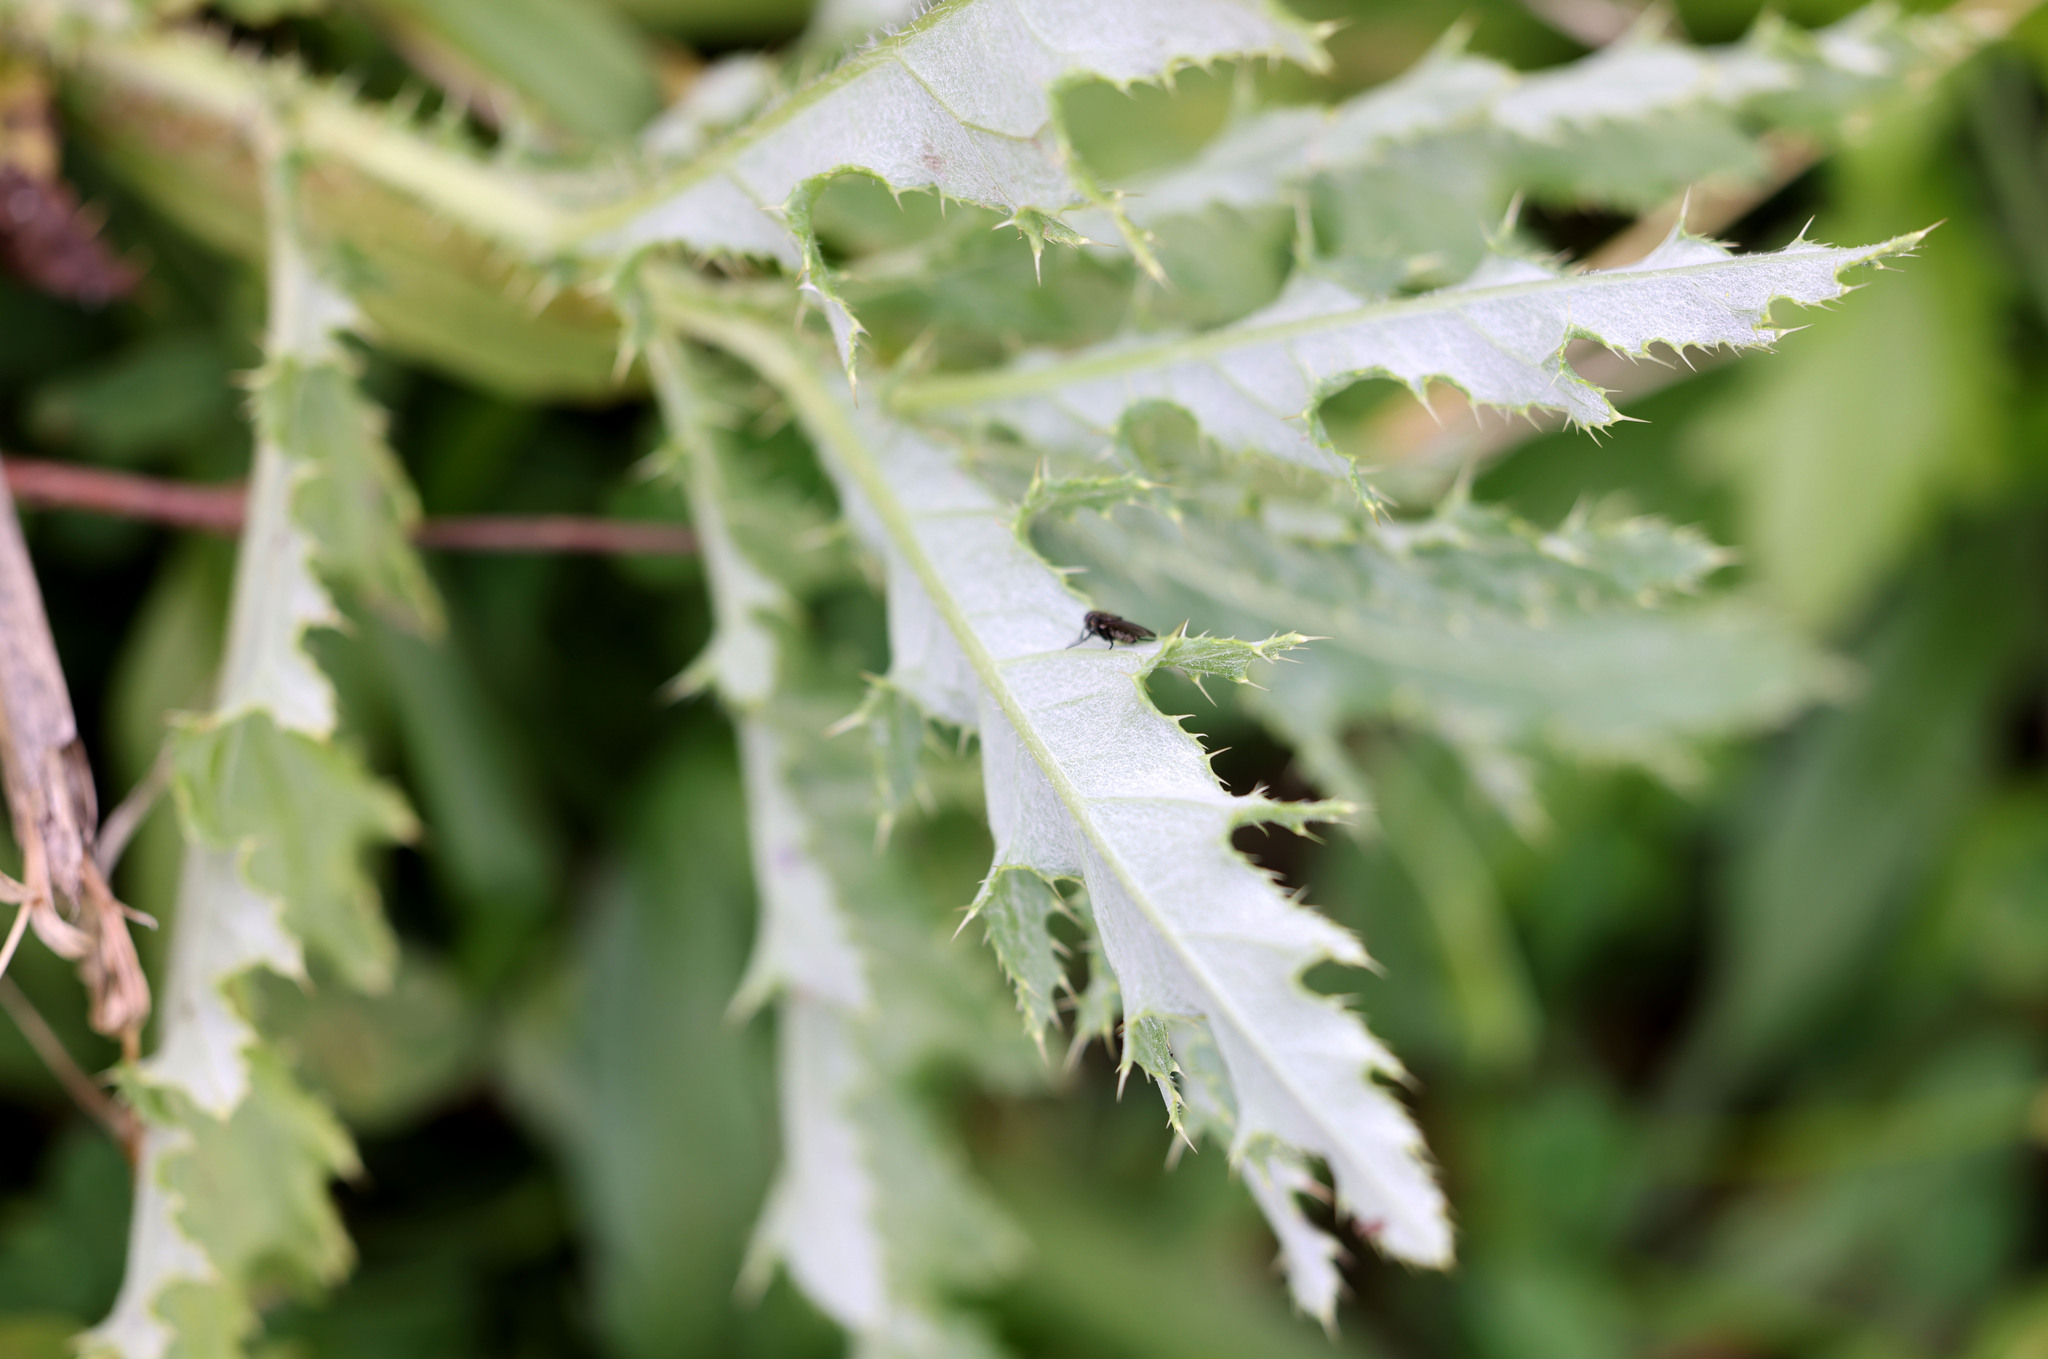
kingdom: Plantae
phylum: Tracheophyta
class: Magnoliopsida
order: Asterales
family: Asteraceae
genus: Cirsium
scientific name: Cirsium arvense
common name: Creeping thistle
